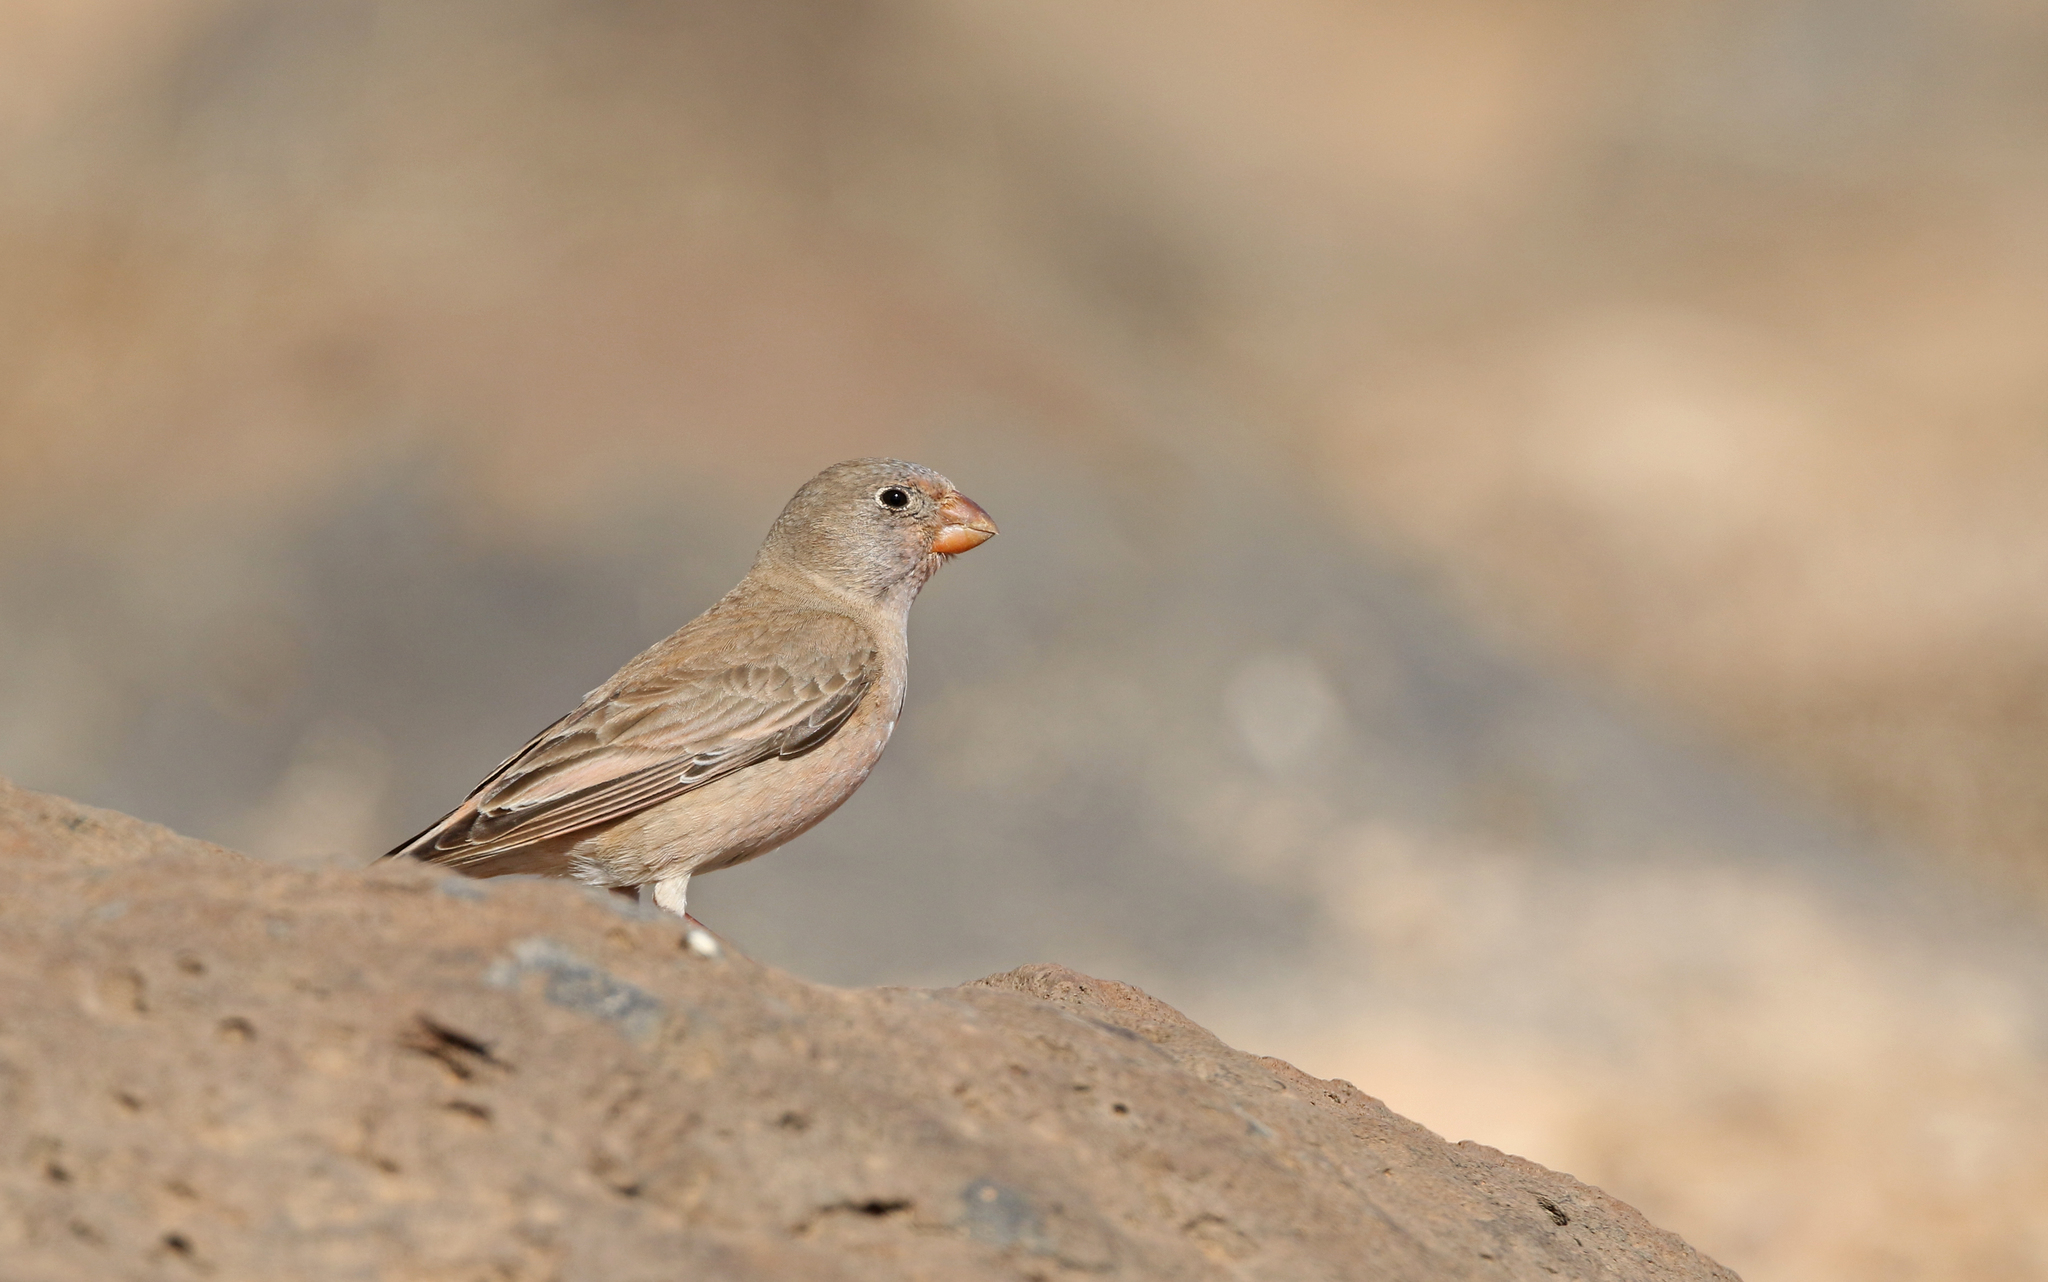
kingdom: Animalia
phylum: Chordata
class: Aves
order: Passeriformes
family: Fringillidae
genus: Bucanetes
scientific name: Bucanetes githagineus
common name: Trumpeter finch
